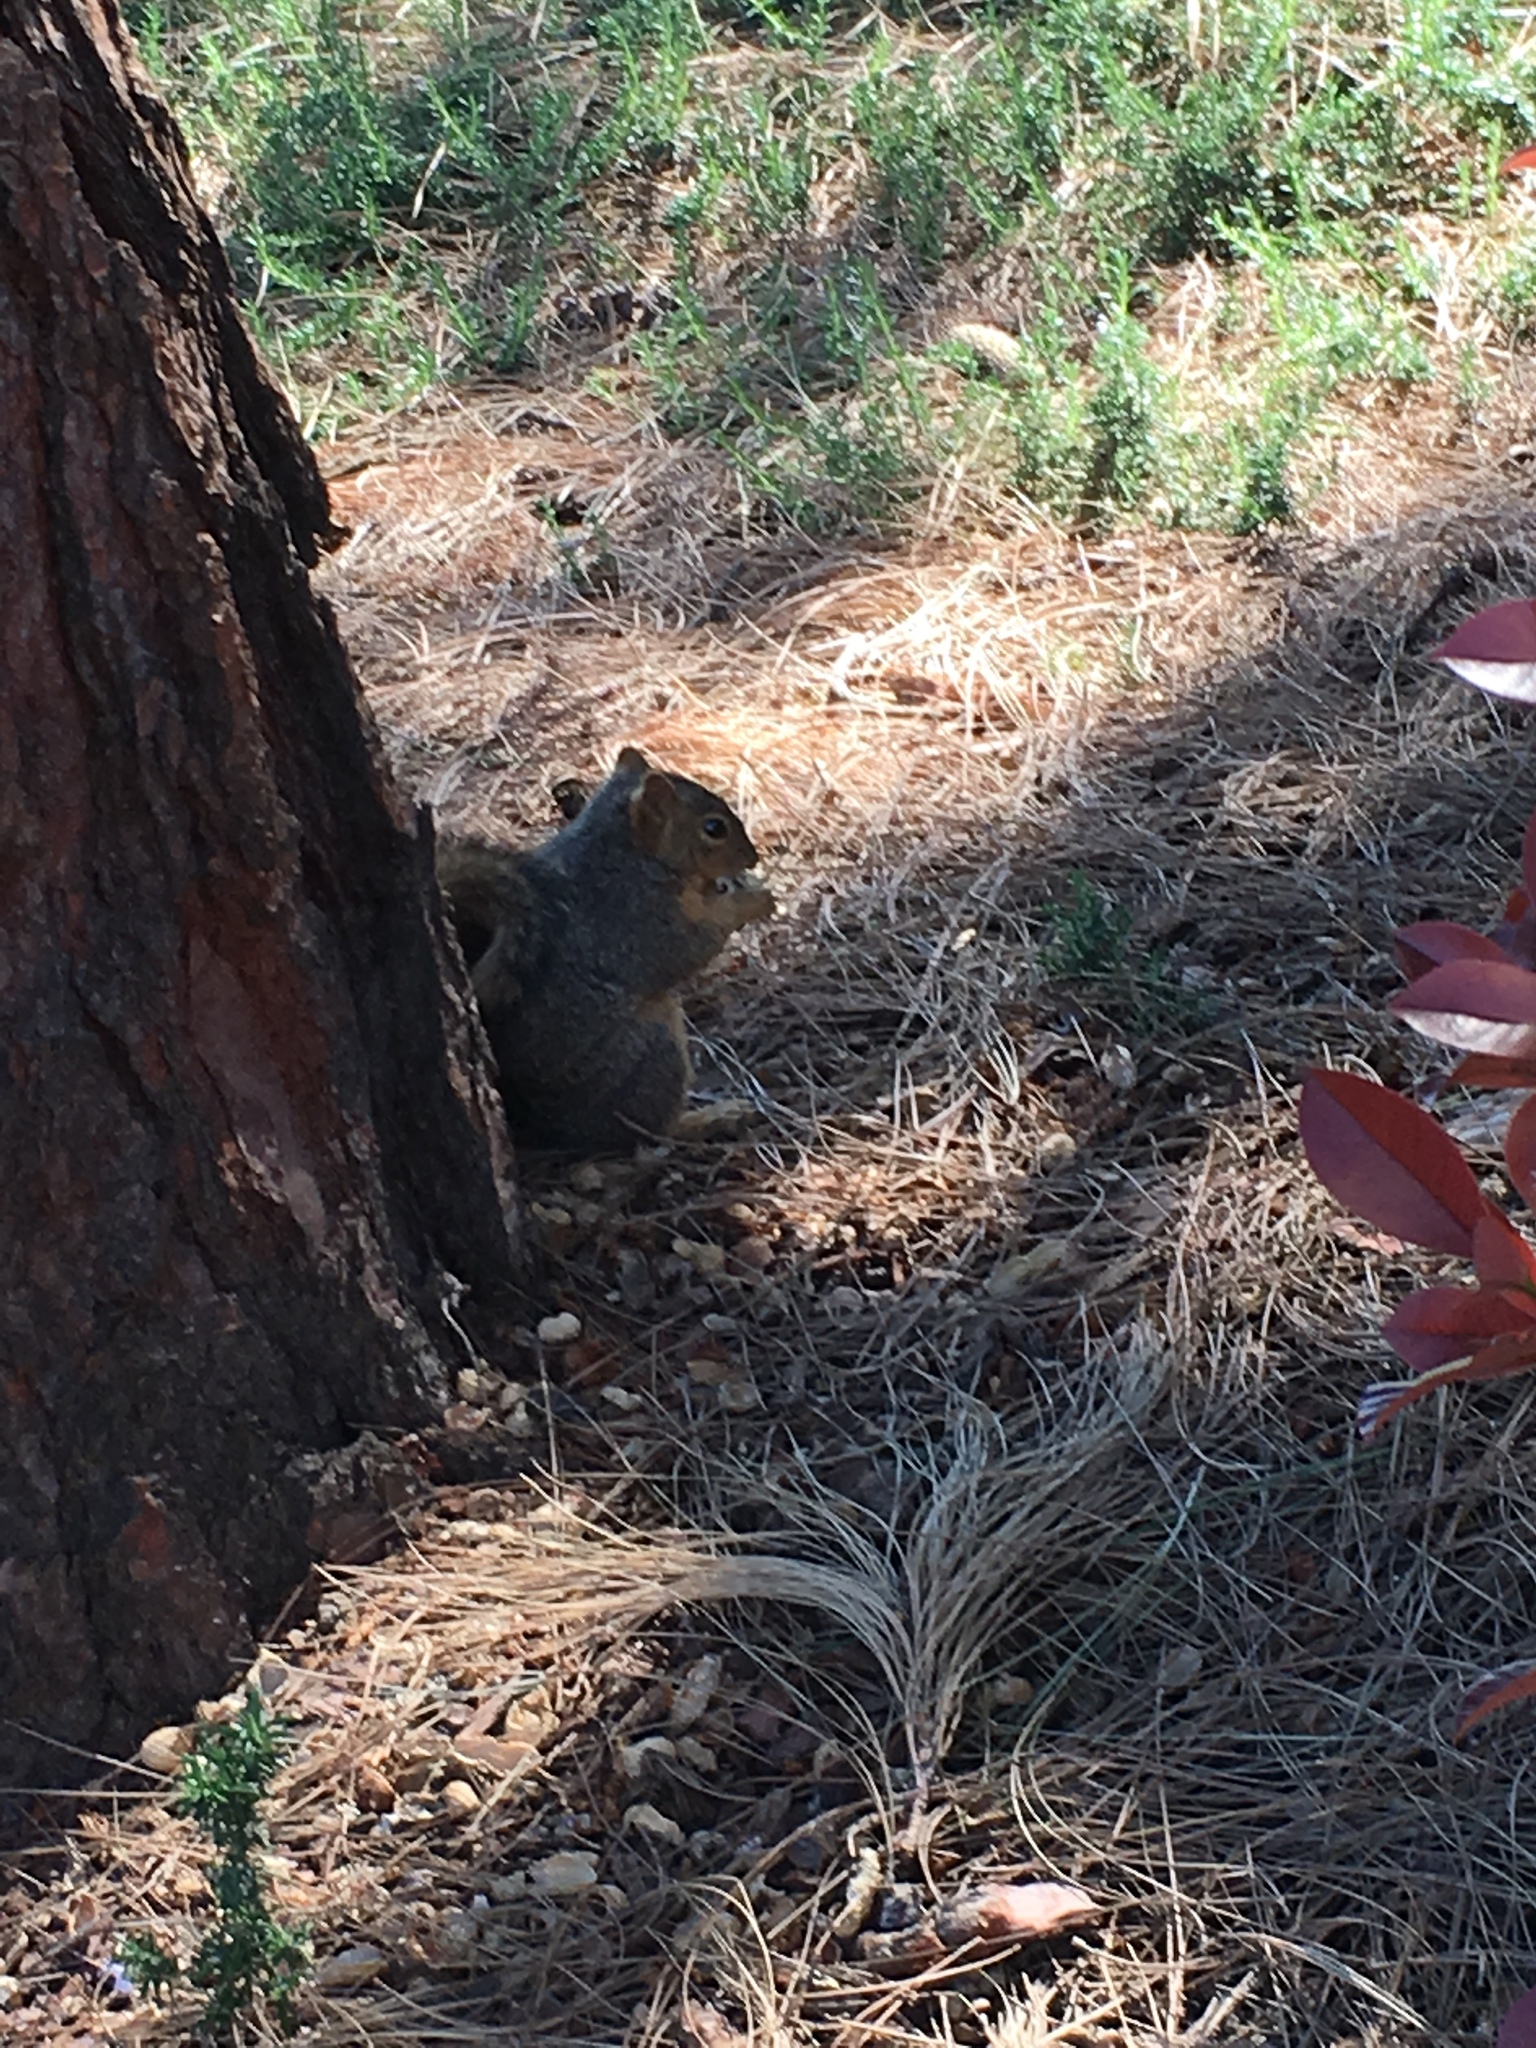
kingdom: Animalia
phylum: Chordata
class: Mammalia
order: Rodentia
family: Sciuridae
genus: Sciurus
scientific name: Sciurus niger
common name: Fox squirrel
